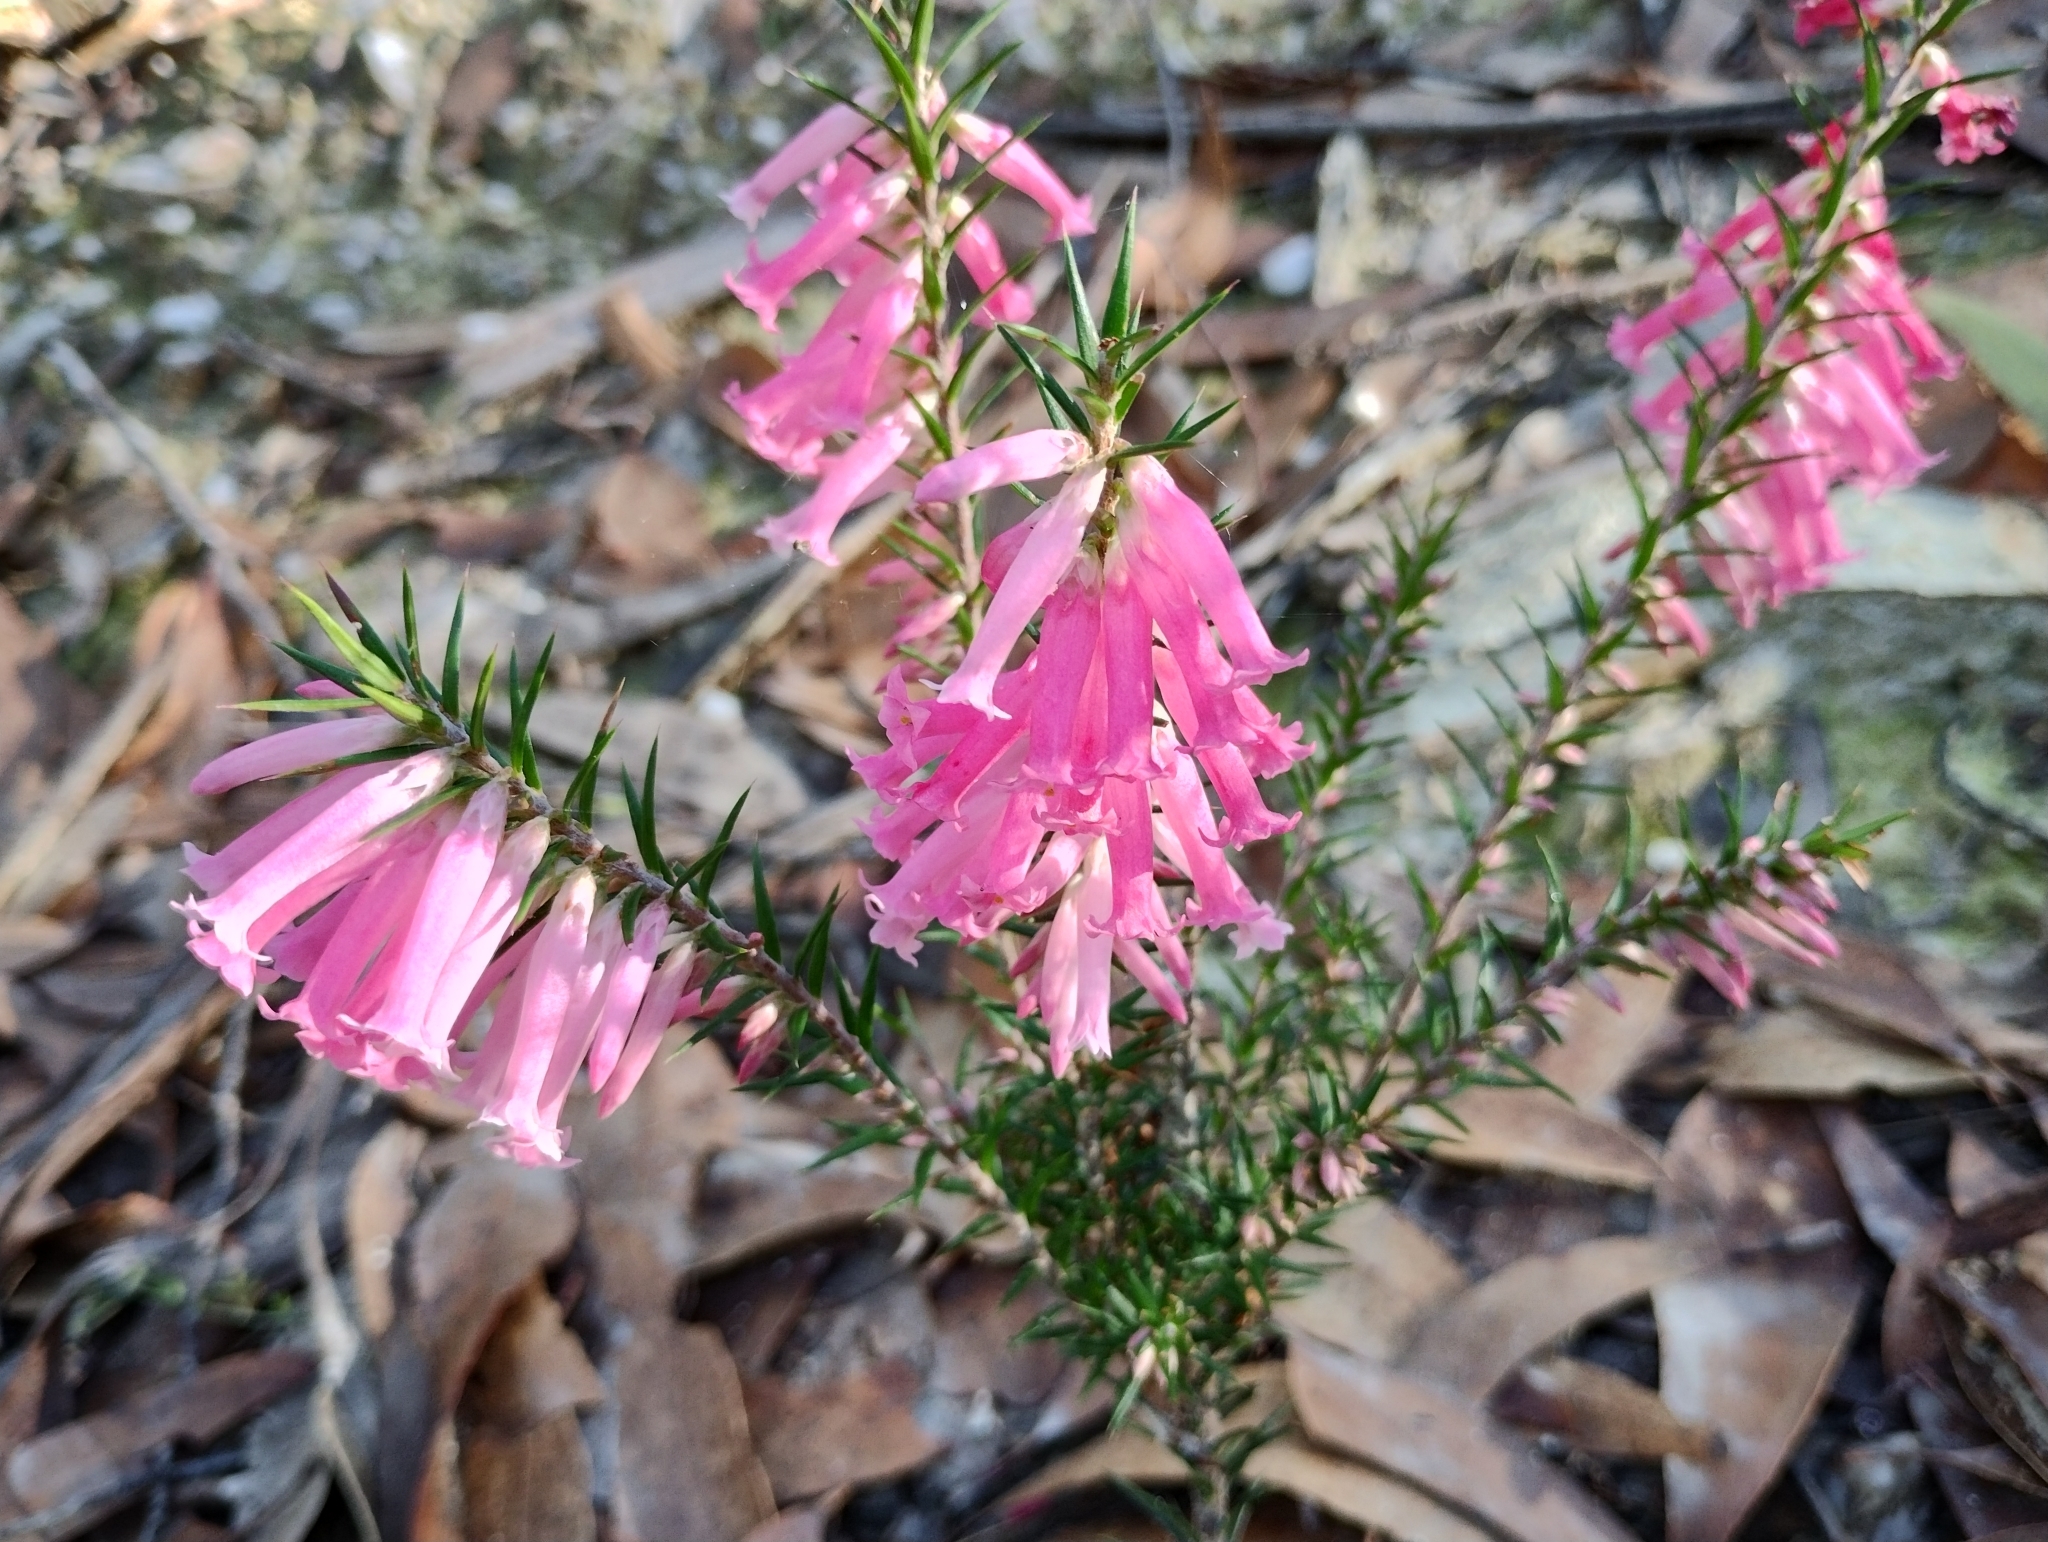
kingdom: Plantae
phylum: Tracheophyta
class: Magnoliopsida
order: Ericales
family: Ericaceae
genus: Epacris
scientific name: Epacris impressa
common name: Common-heath
